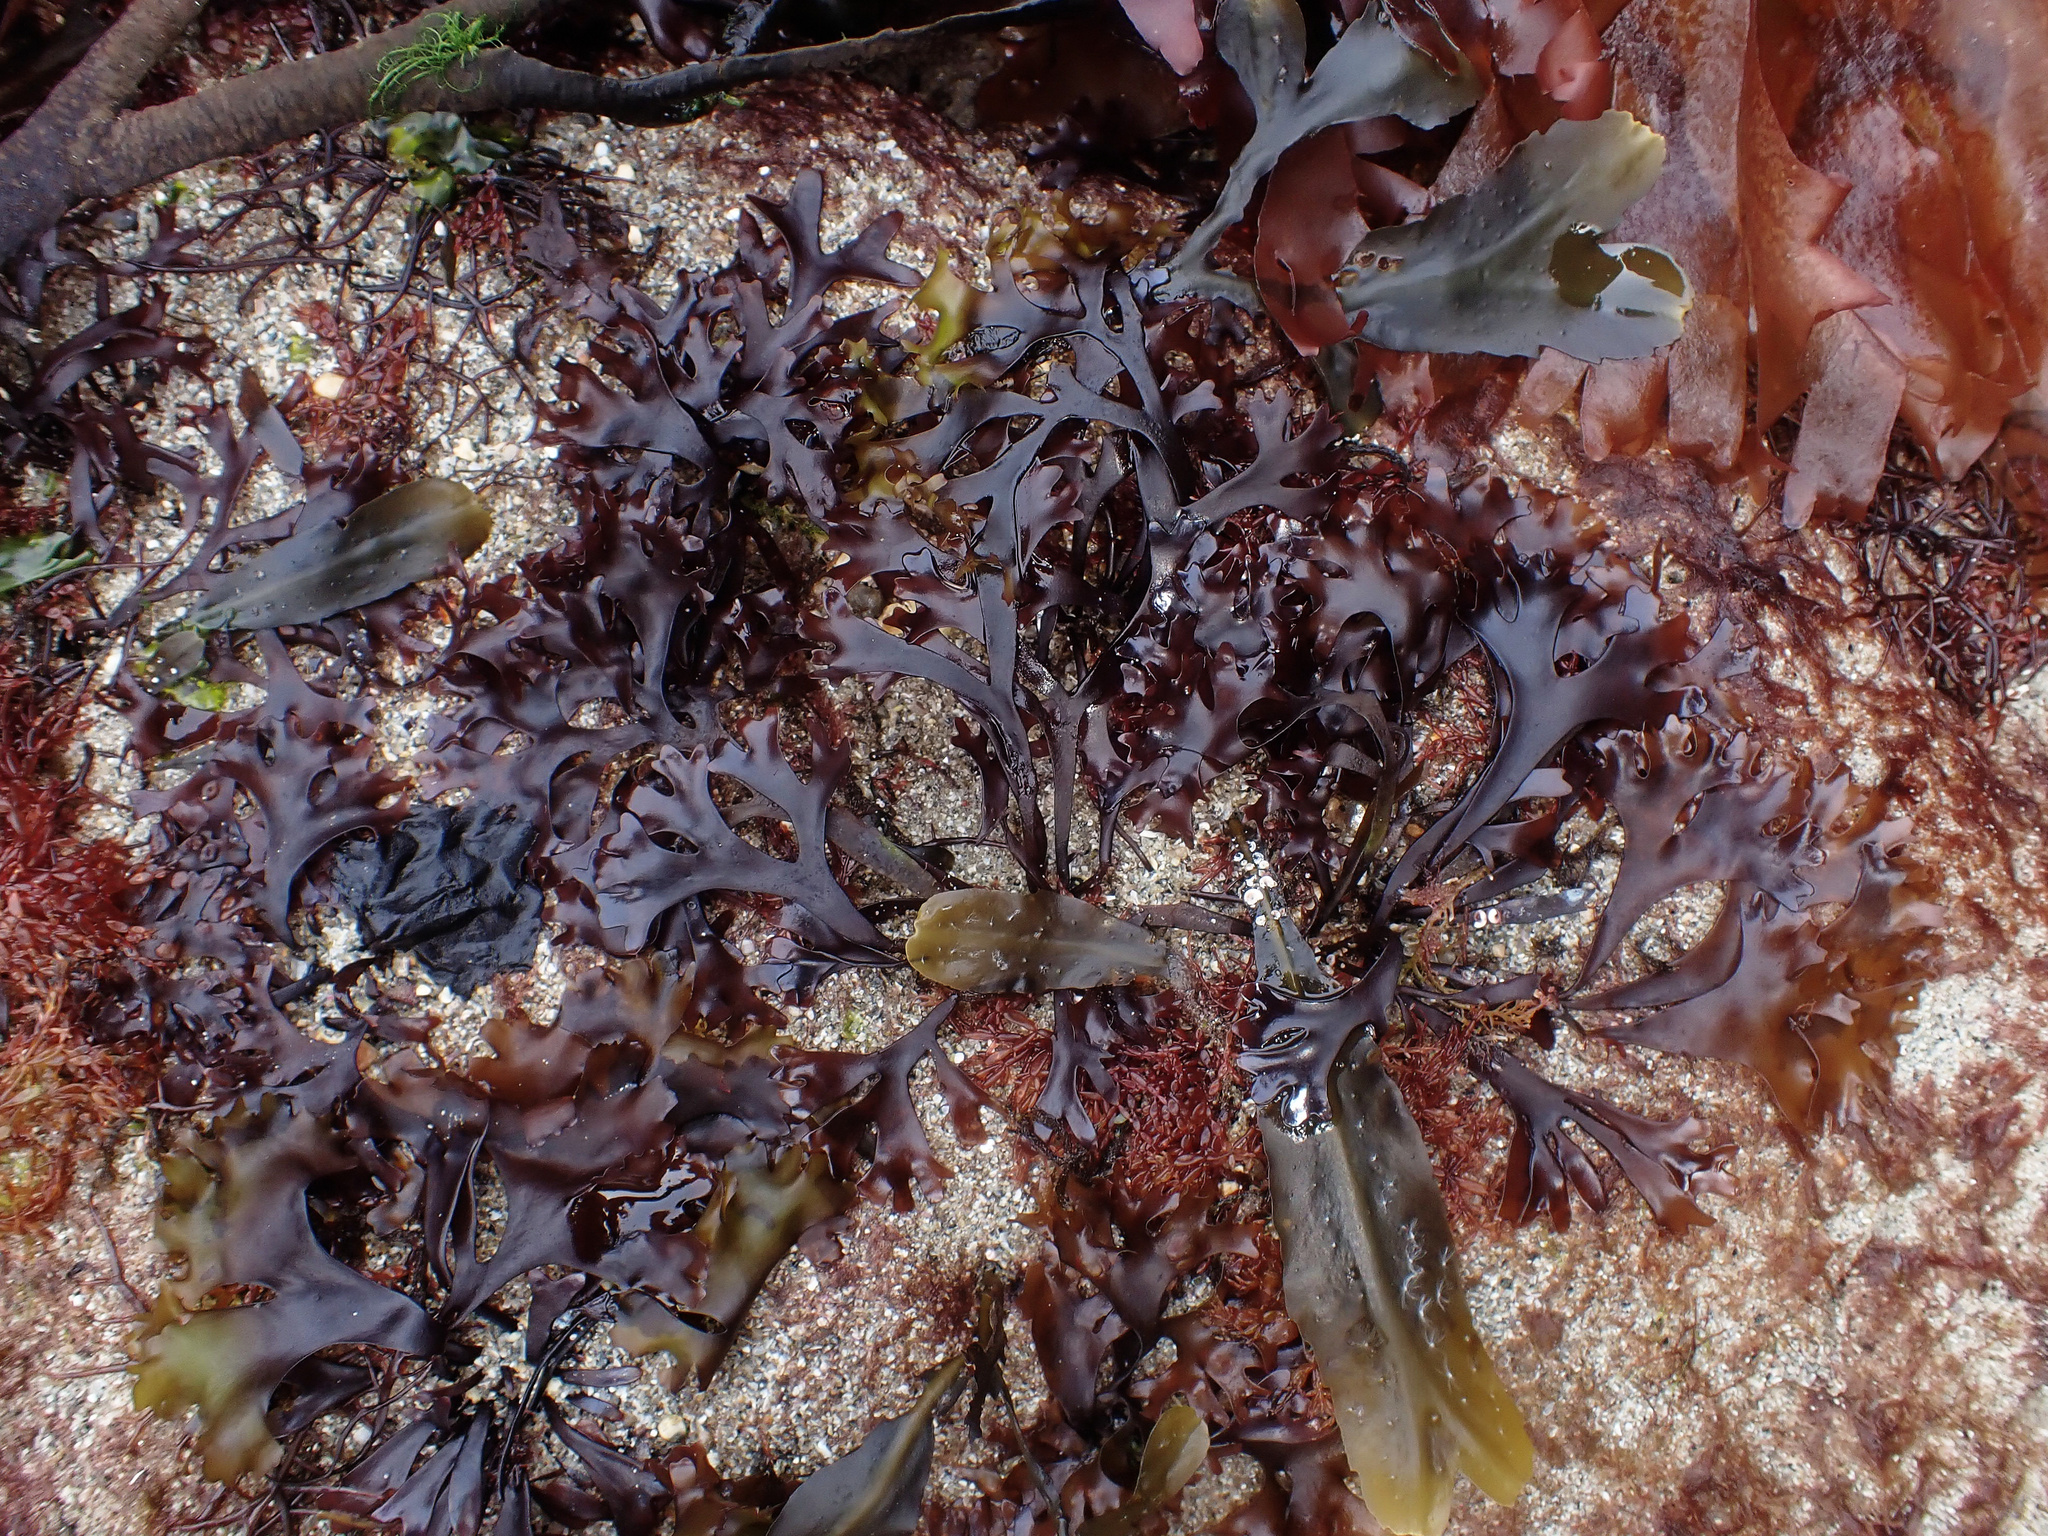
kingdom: Plantae
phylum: Rhodophyta
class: Florideophyceae
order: Gigartinales
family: Gigartinaceae
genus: Chondrus
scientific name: Chondrus crispus
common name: Carrageen
